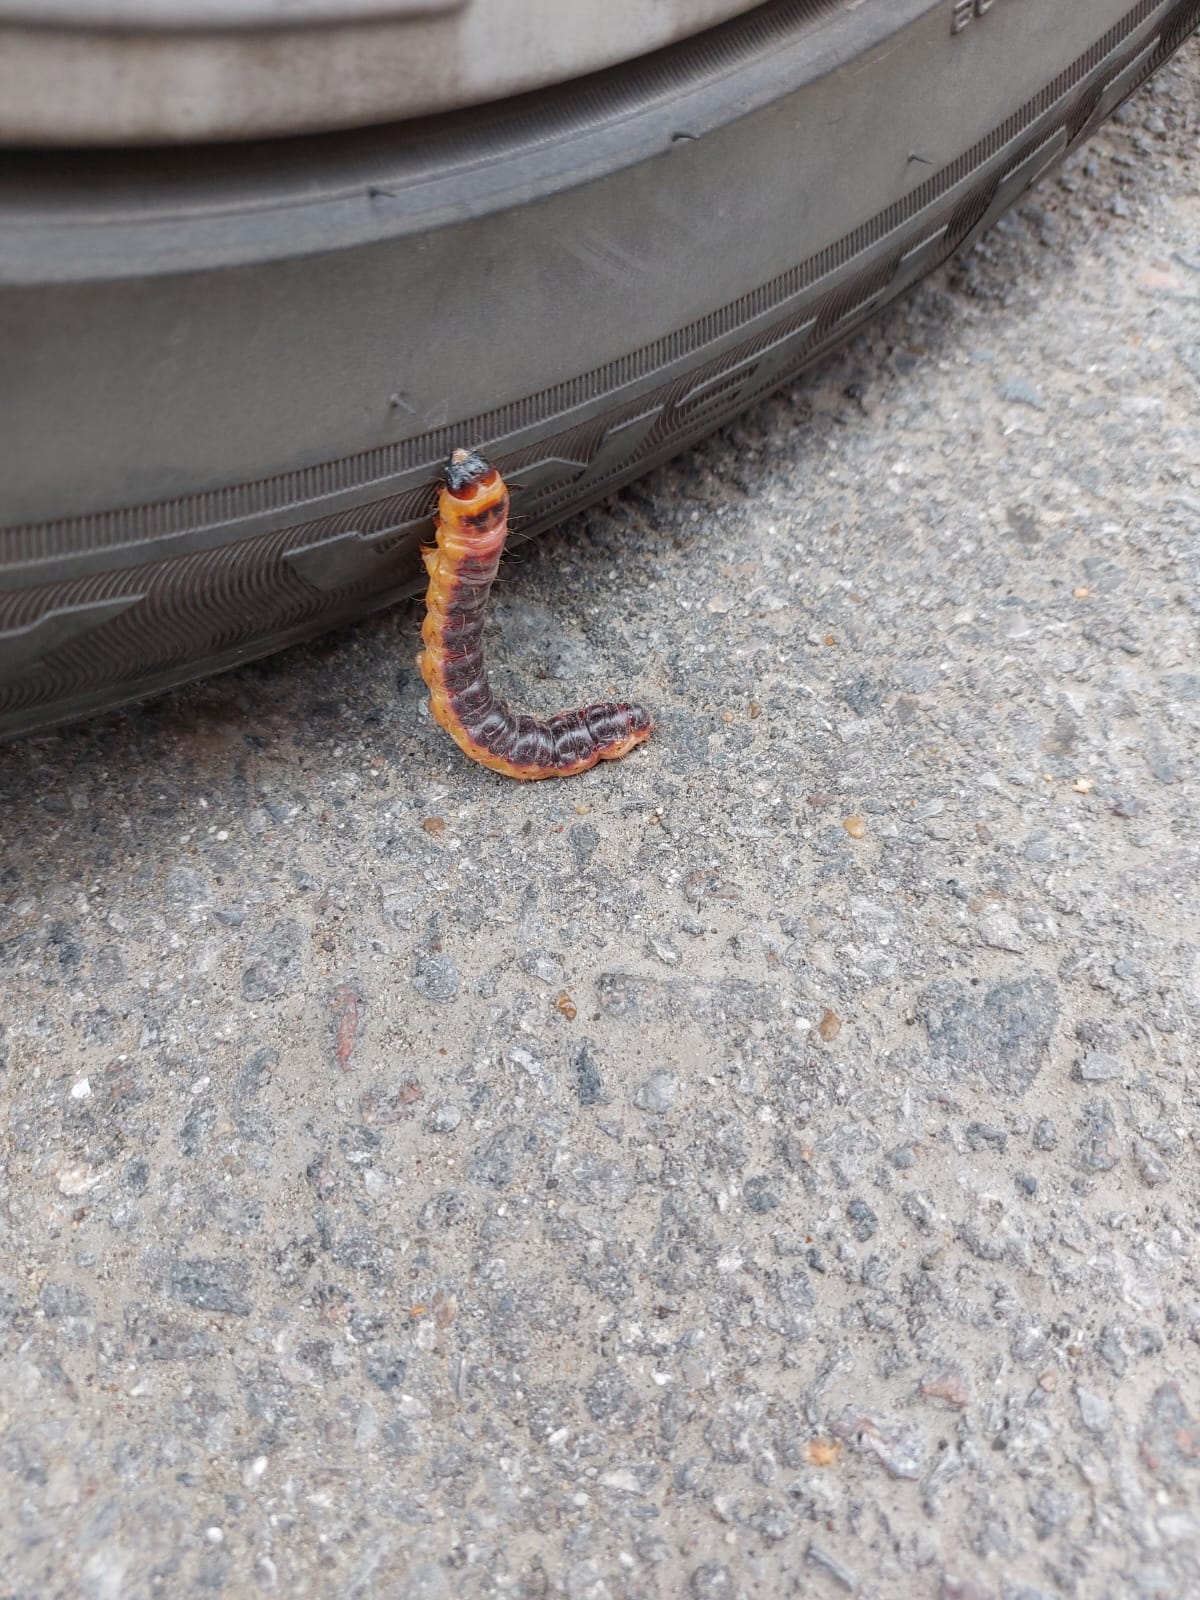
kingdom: Animalia
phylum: Arthropoda
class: Insecta
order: Lepidoptera
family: Cossidae
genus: Cossus
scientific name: Cossus cossus
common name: Goat moth
